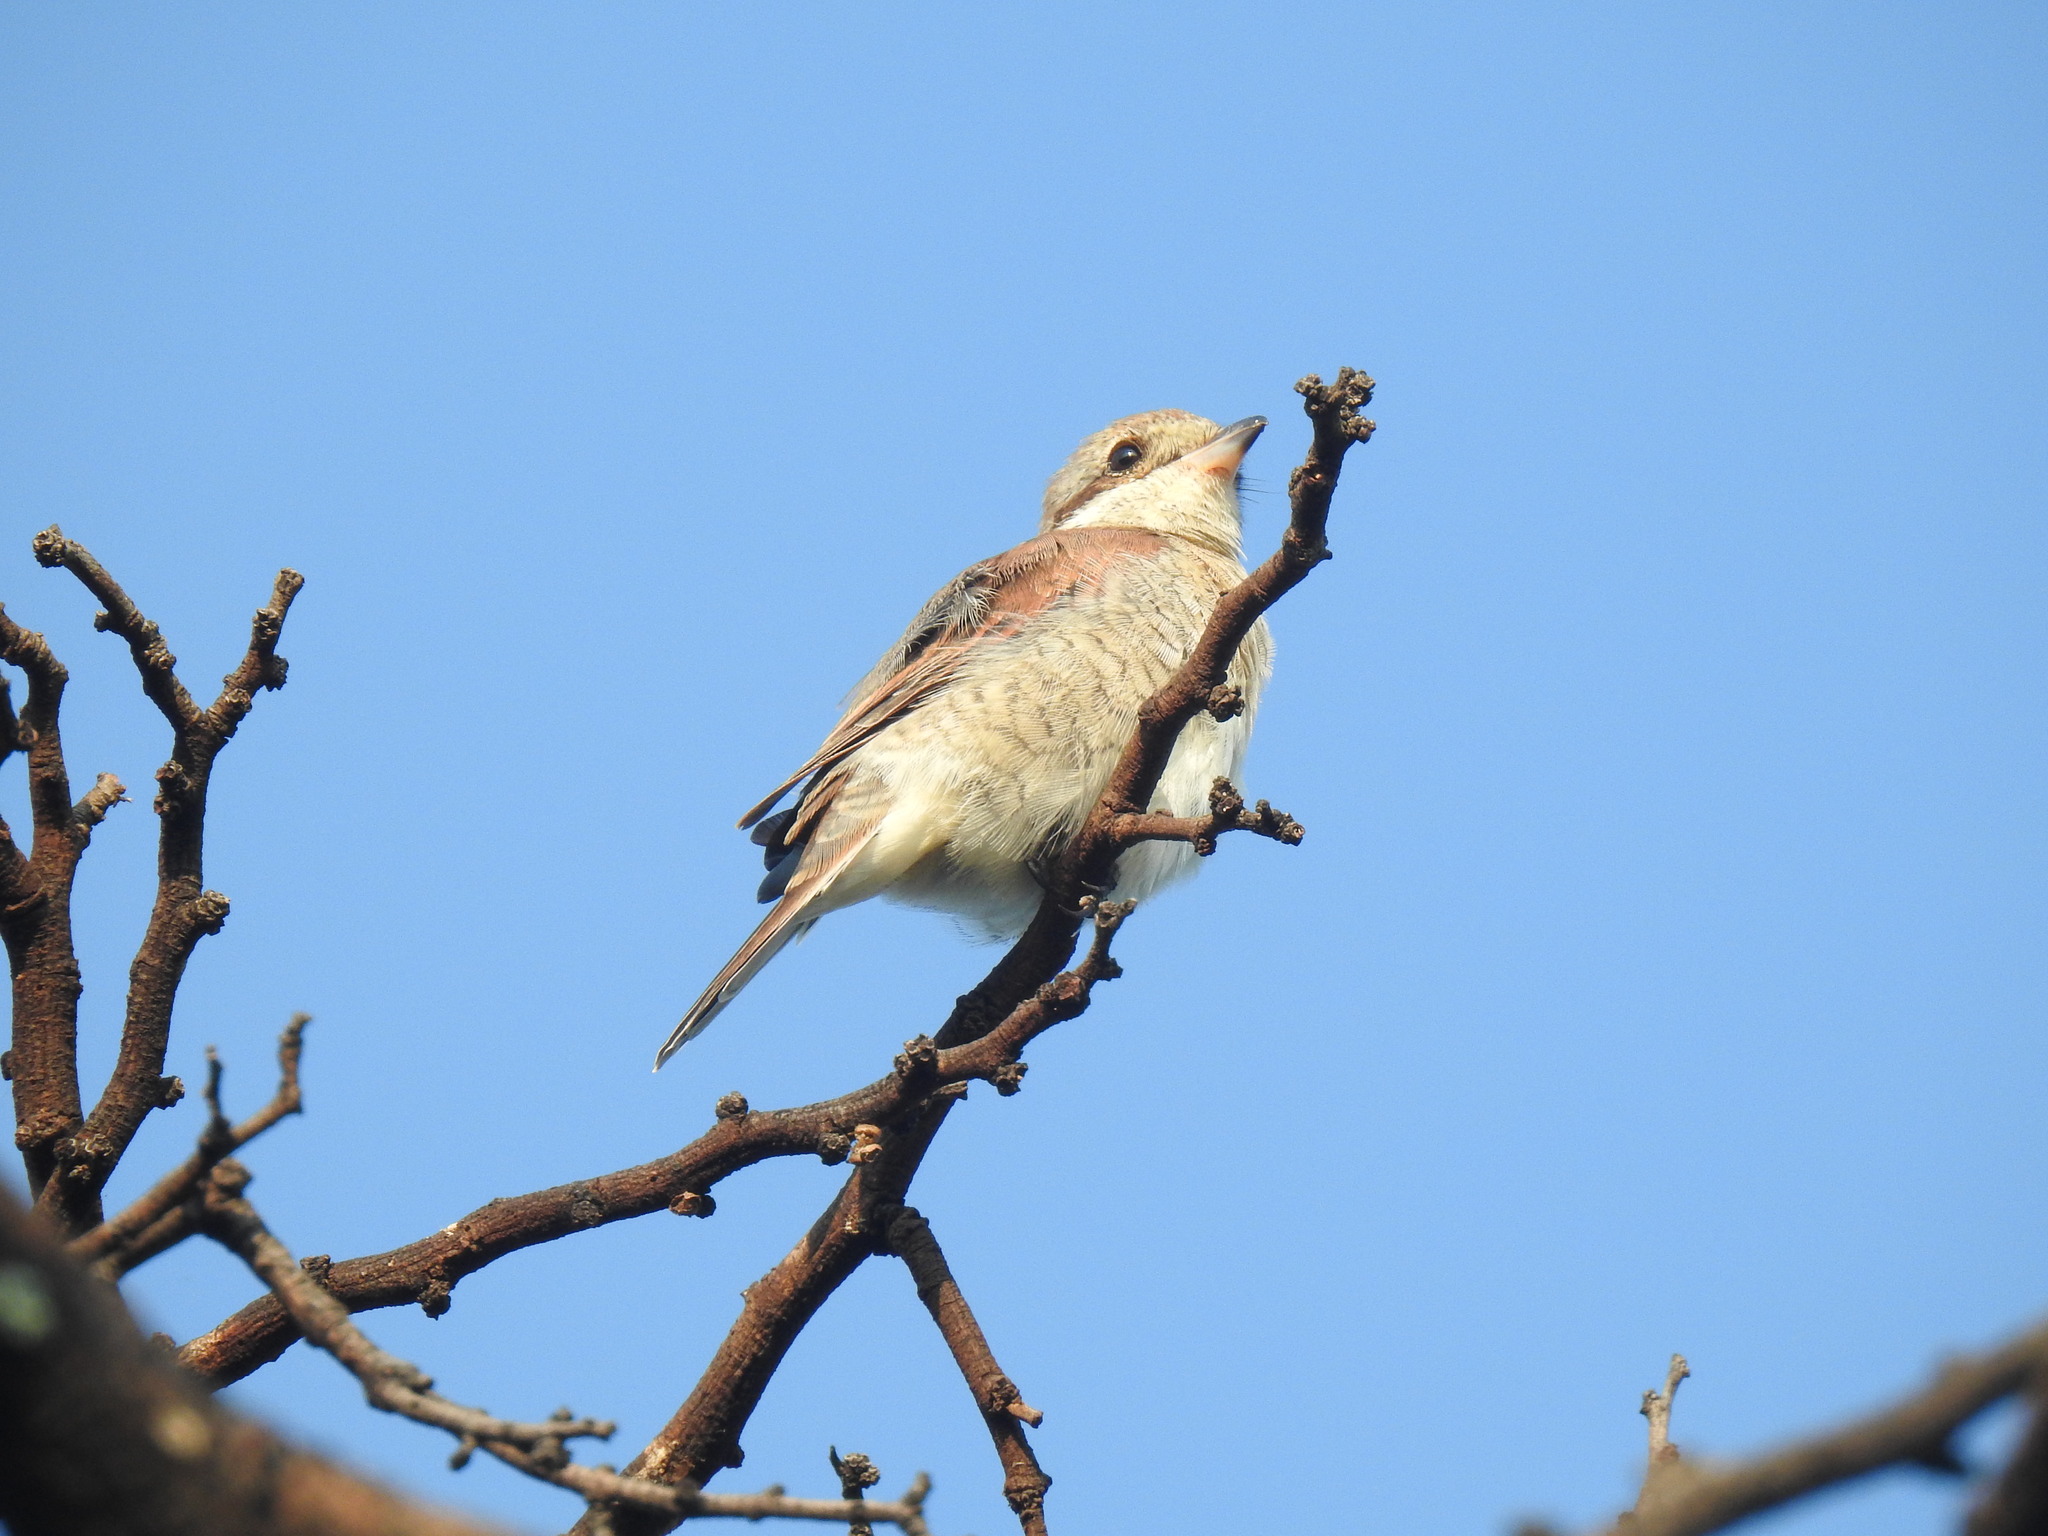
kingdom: Animalia
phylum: Chordata
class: Aves
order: Passeriformes
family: Laniidae
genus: Lanius
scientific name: Lanius collurio
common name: Red-backed shrike
